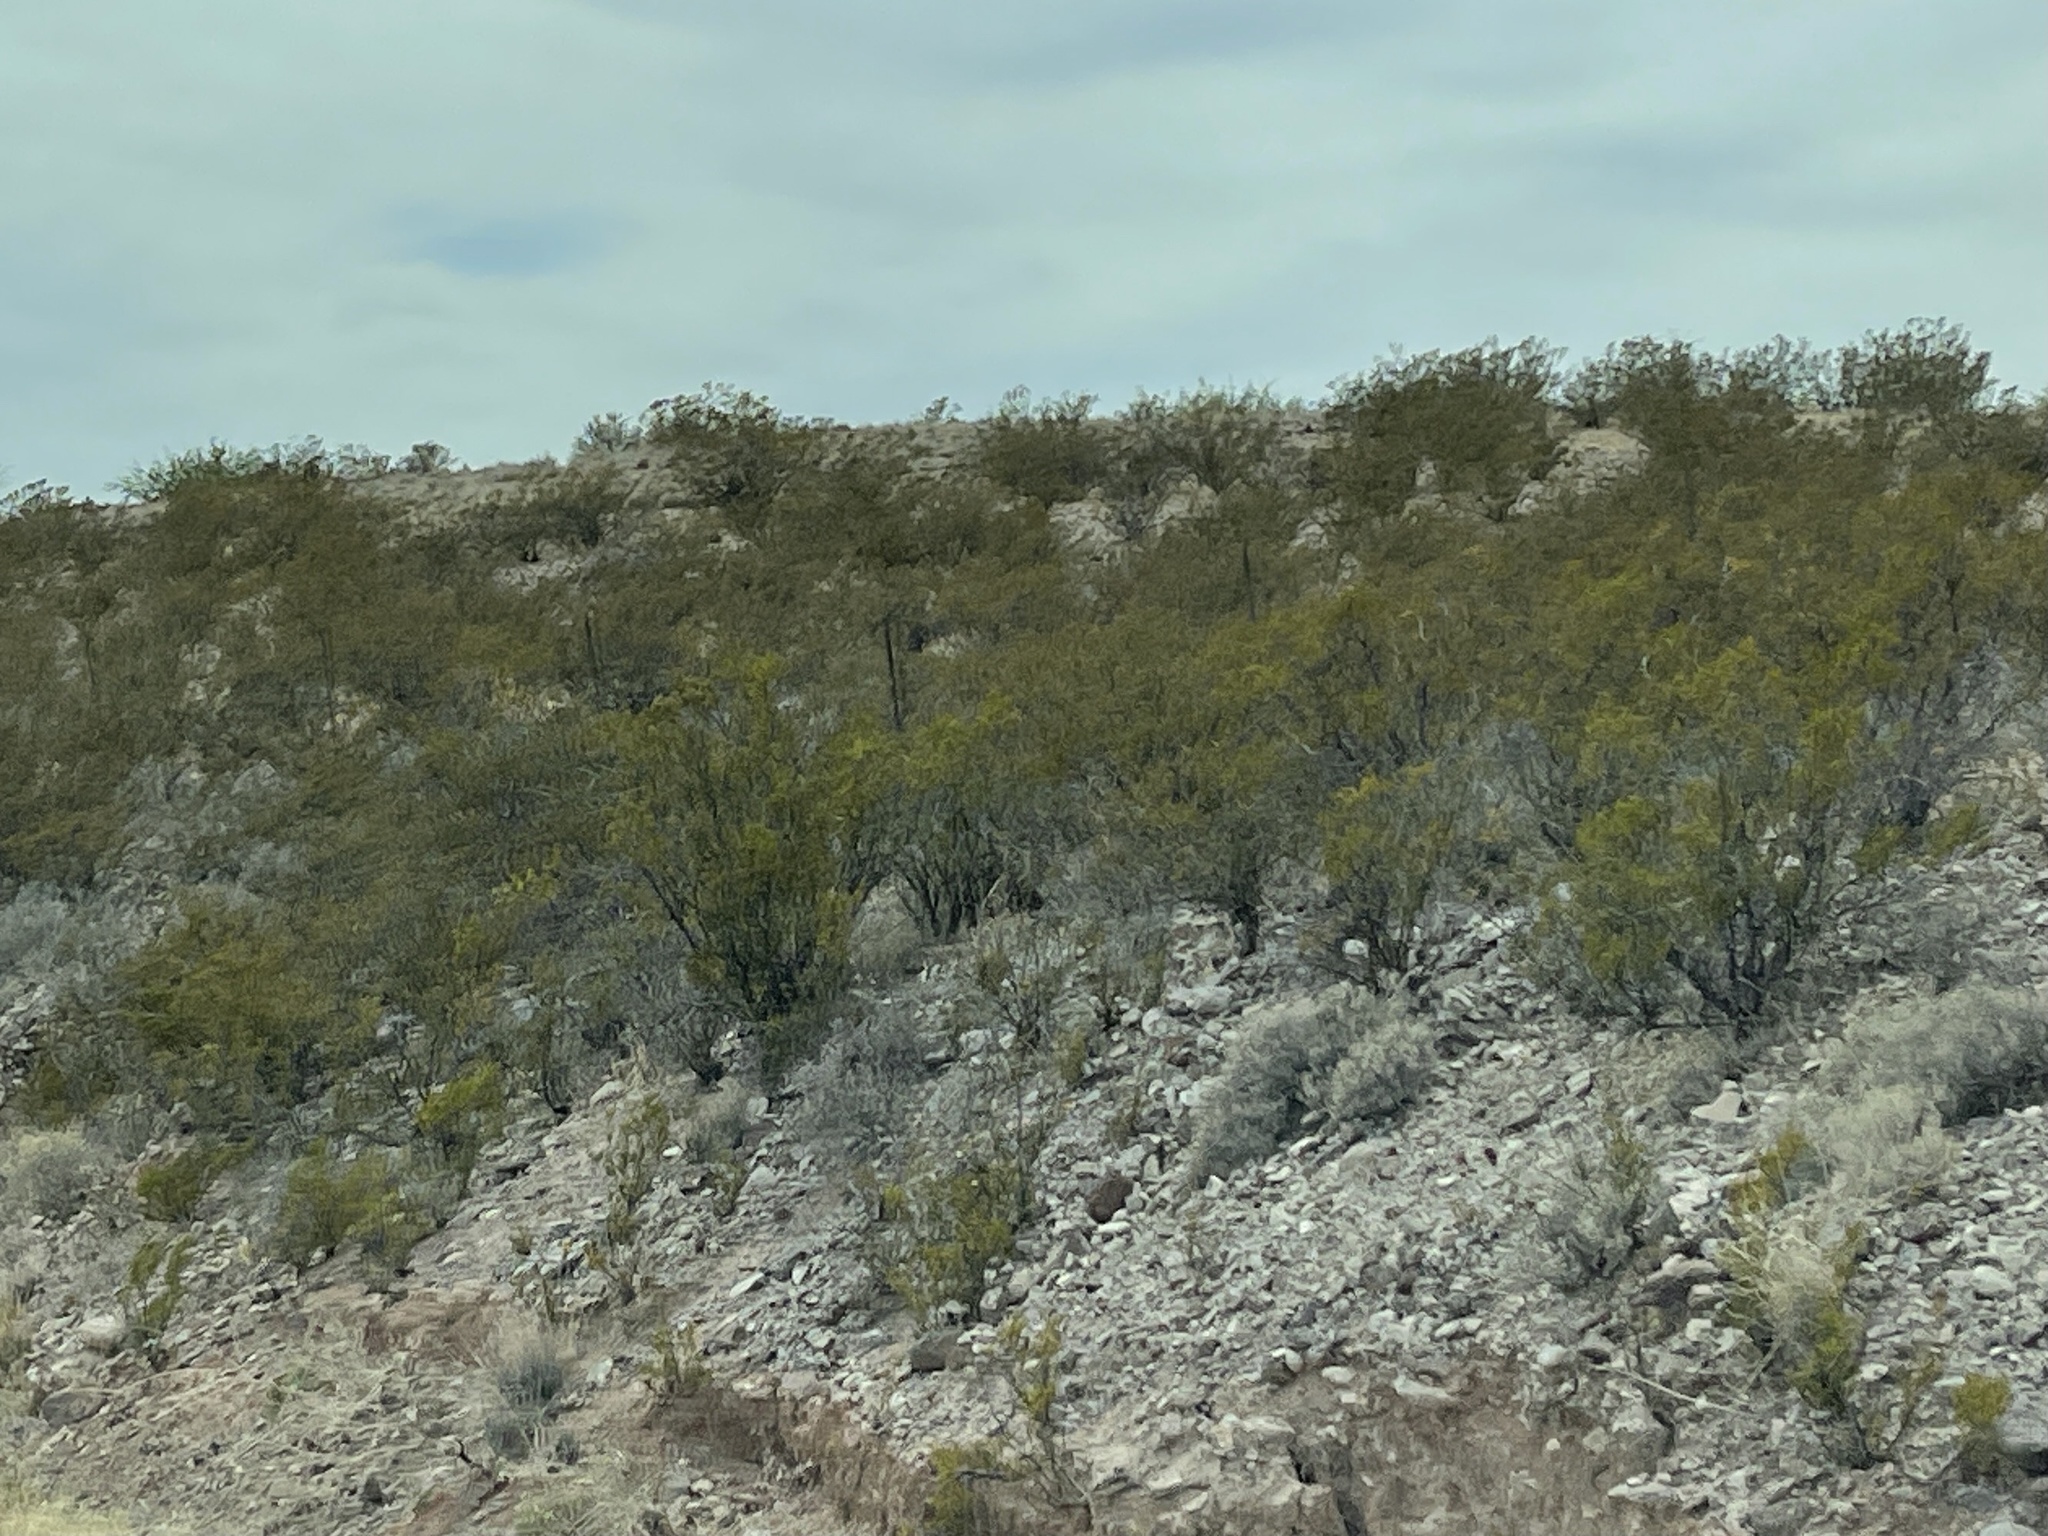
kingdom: Plantae
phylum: Tracheophyta
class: Magnoliopsida
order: Zygophyllales
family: Zygophyllaceae
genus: Larrea
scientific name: Larrea tridentata
